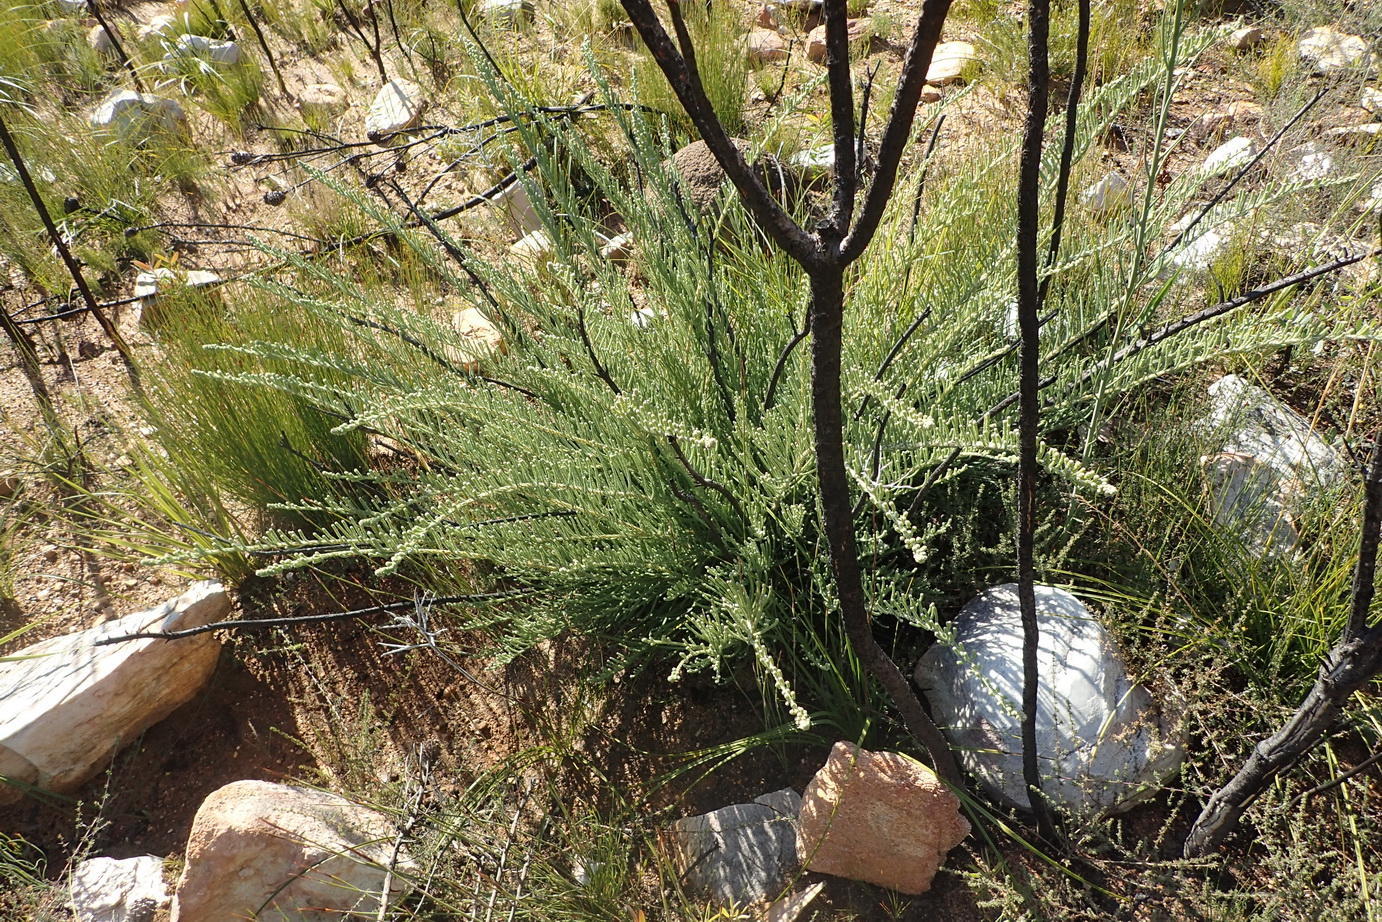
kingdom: Plantae
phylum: Tracheophyta
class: Magnoliopsida
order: Bruniales
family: Bruniaceae
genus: Brunia
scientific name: Brunia noduliflora
